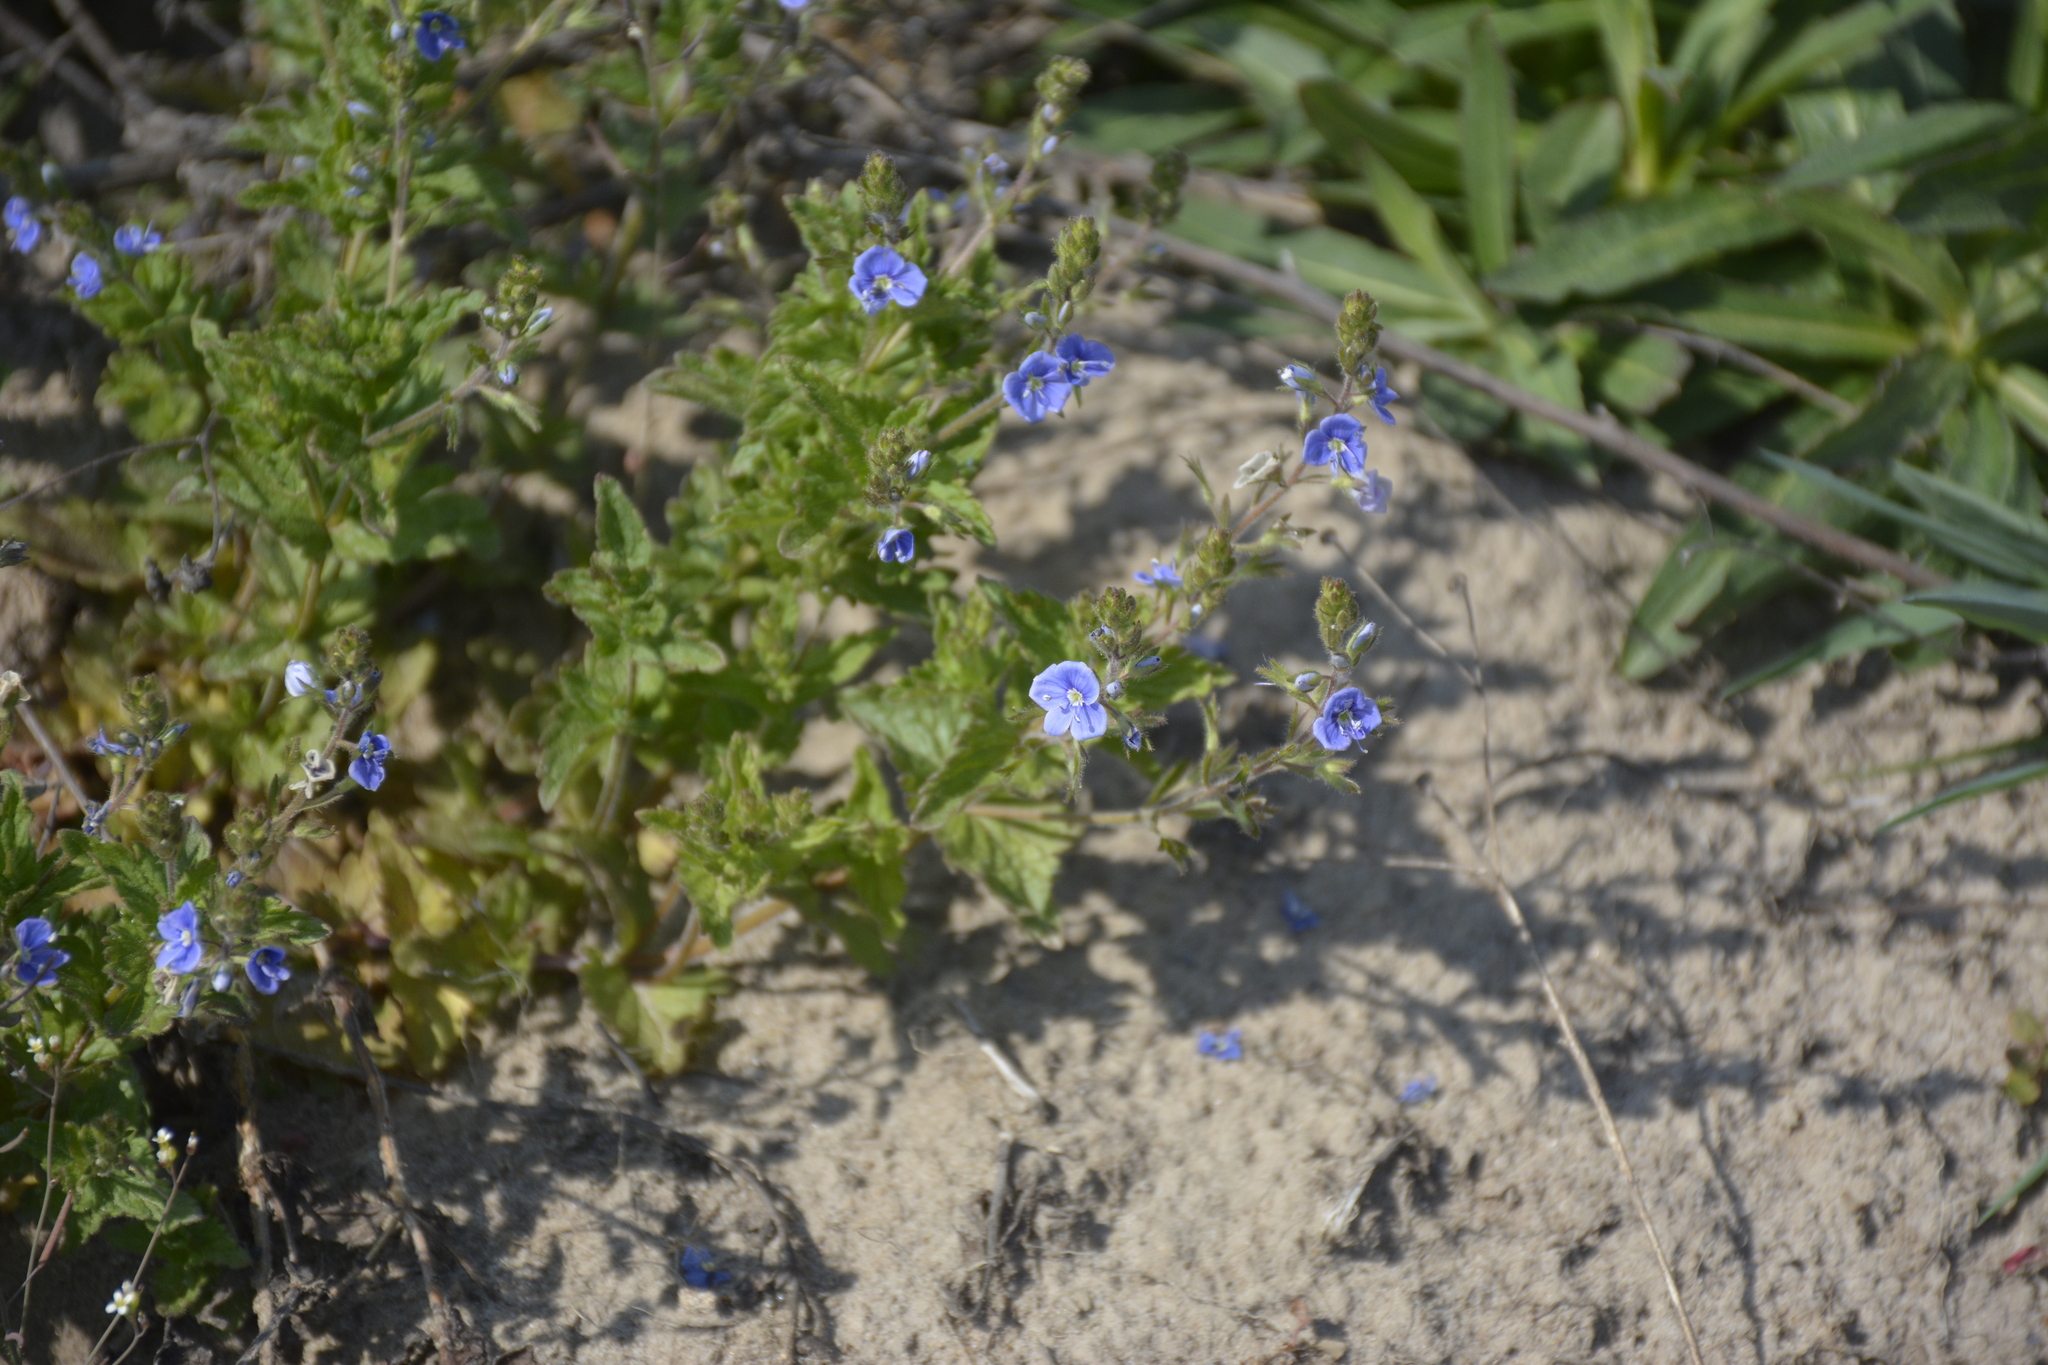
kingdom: Plantae
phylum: Tracheophyta
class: Magnoliopsida
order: Lamiales
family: Plantaginaceae
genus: Veronica
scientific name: Veronica chamaedrys
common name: Germander speedwell
